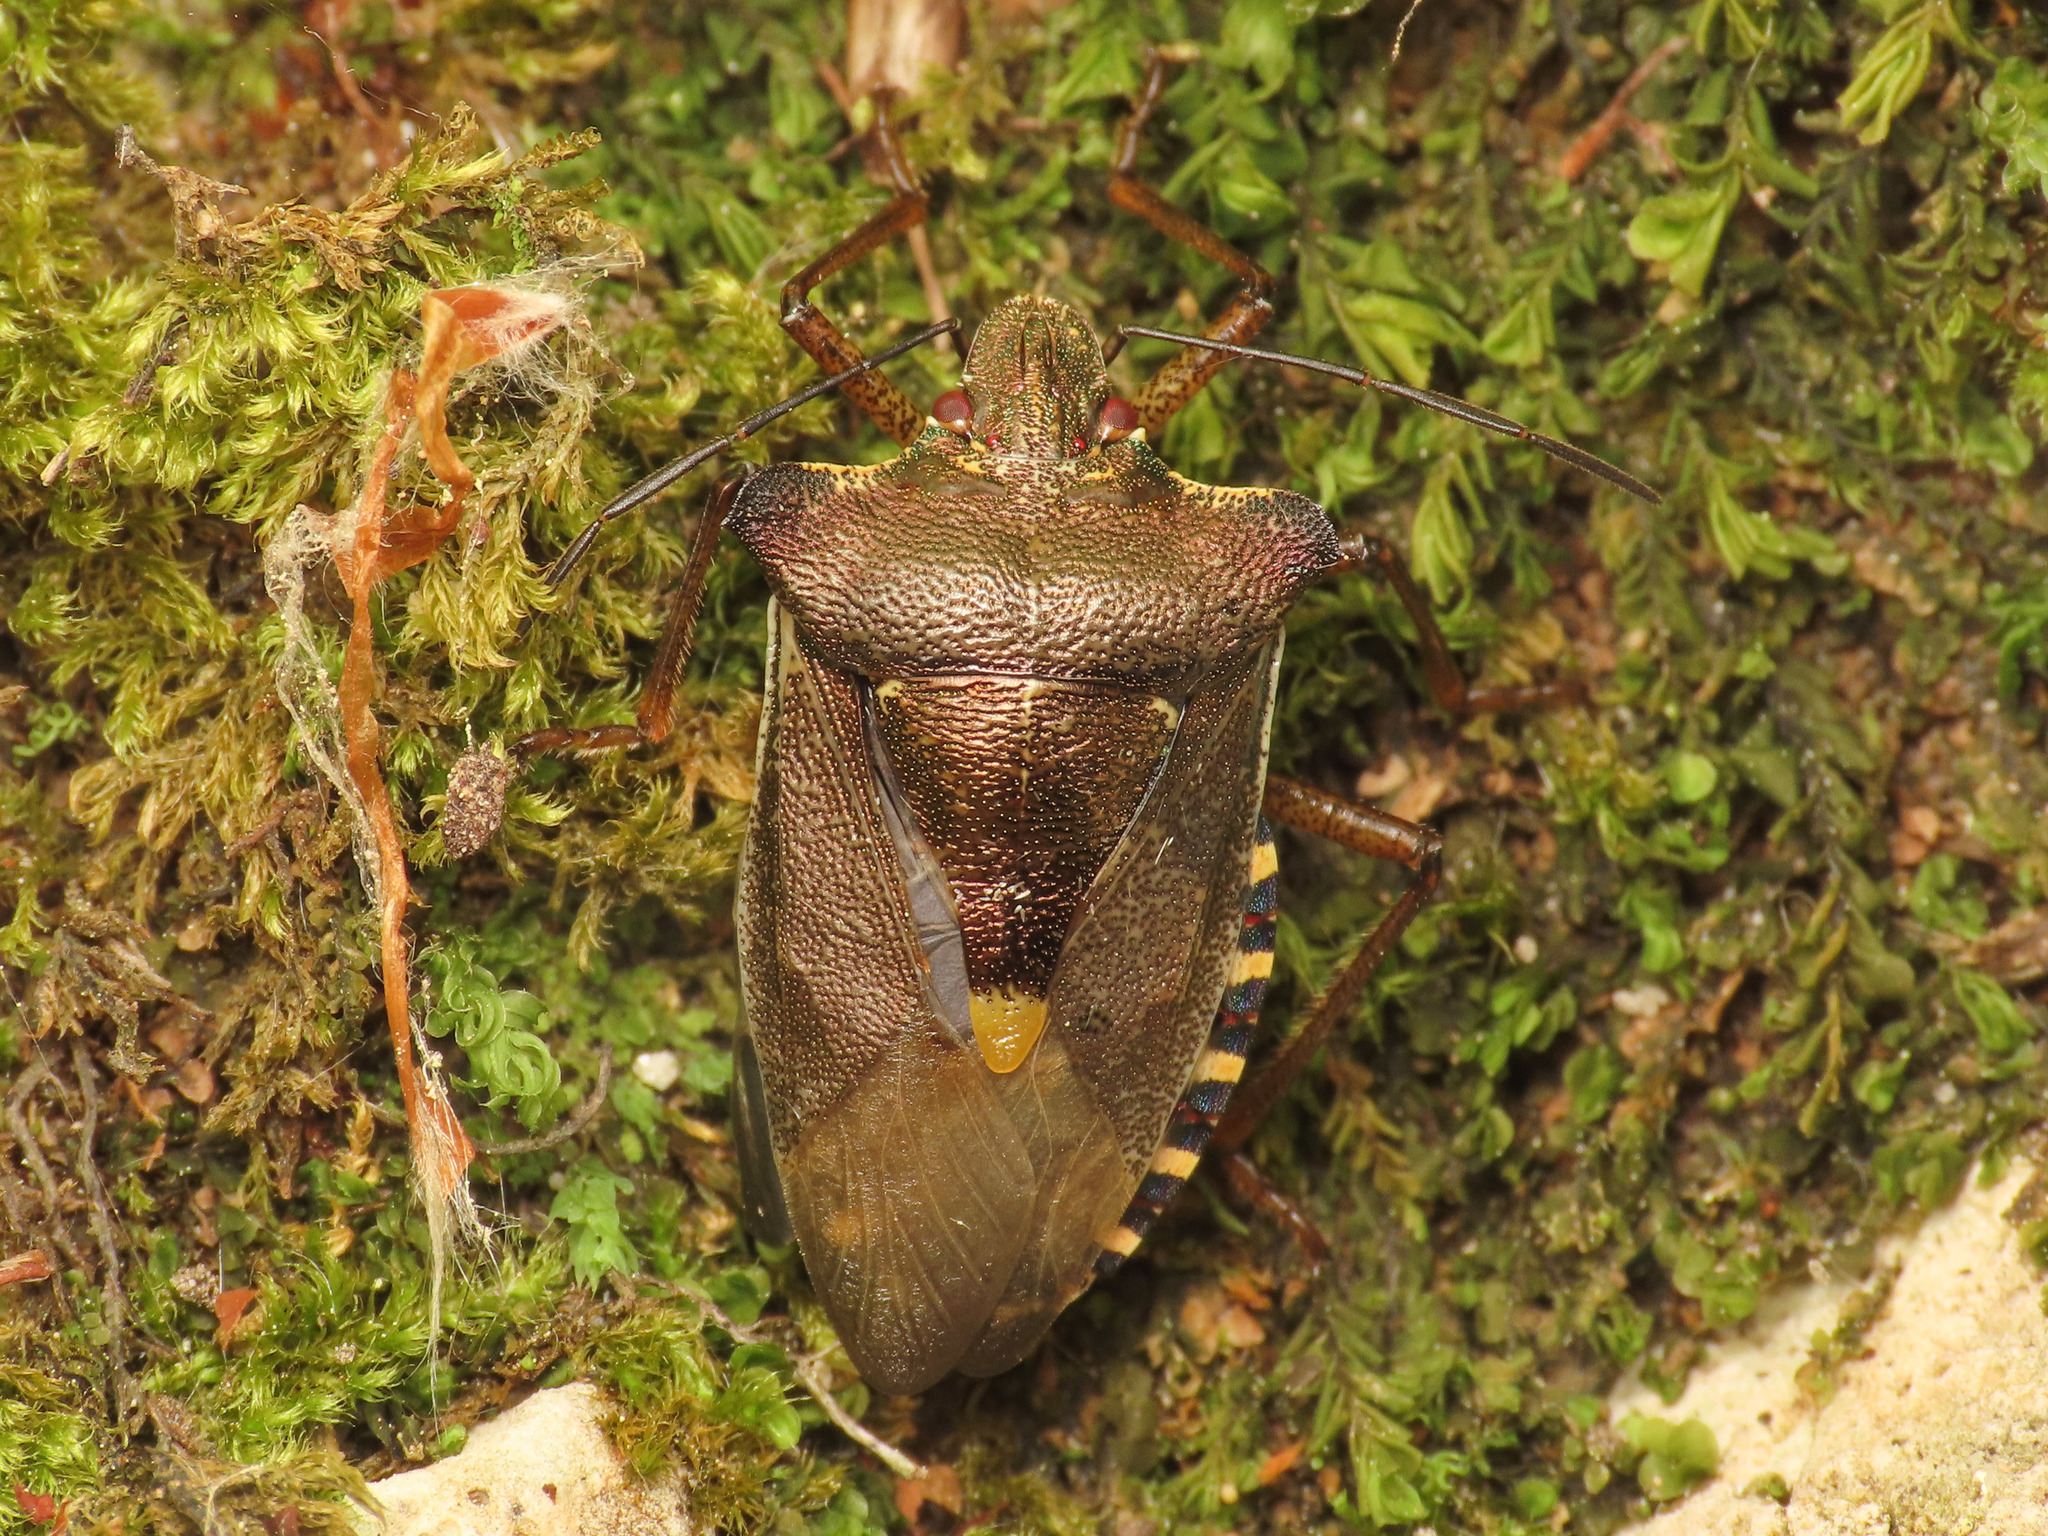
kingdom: Animalia
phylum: Arthropoda
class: Insecta
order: Hemiptera
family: Pentatomidae
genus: Pentatoma
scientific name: Pentatoma rufipes
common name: Forest bug
